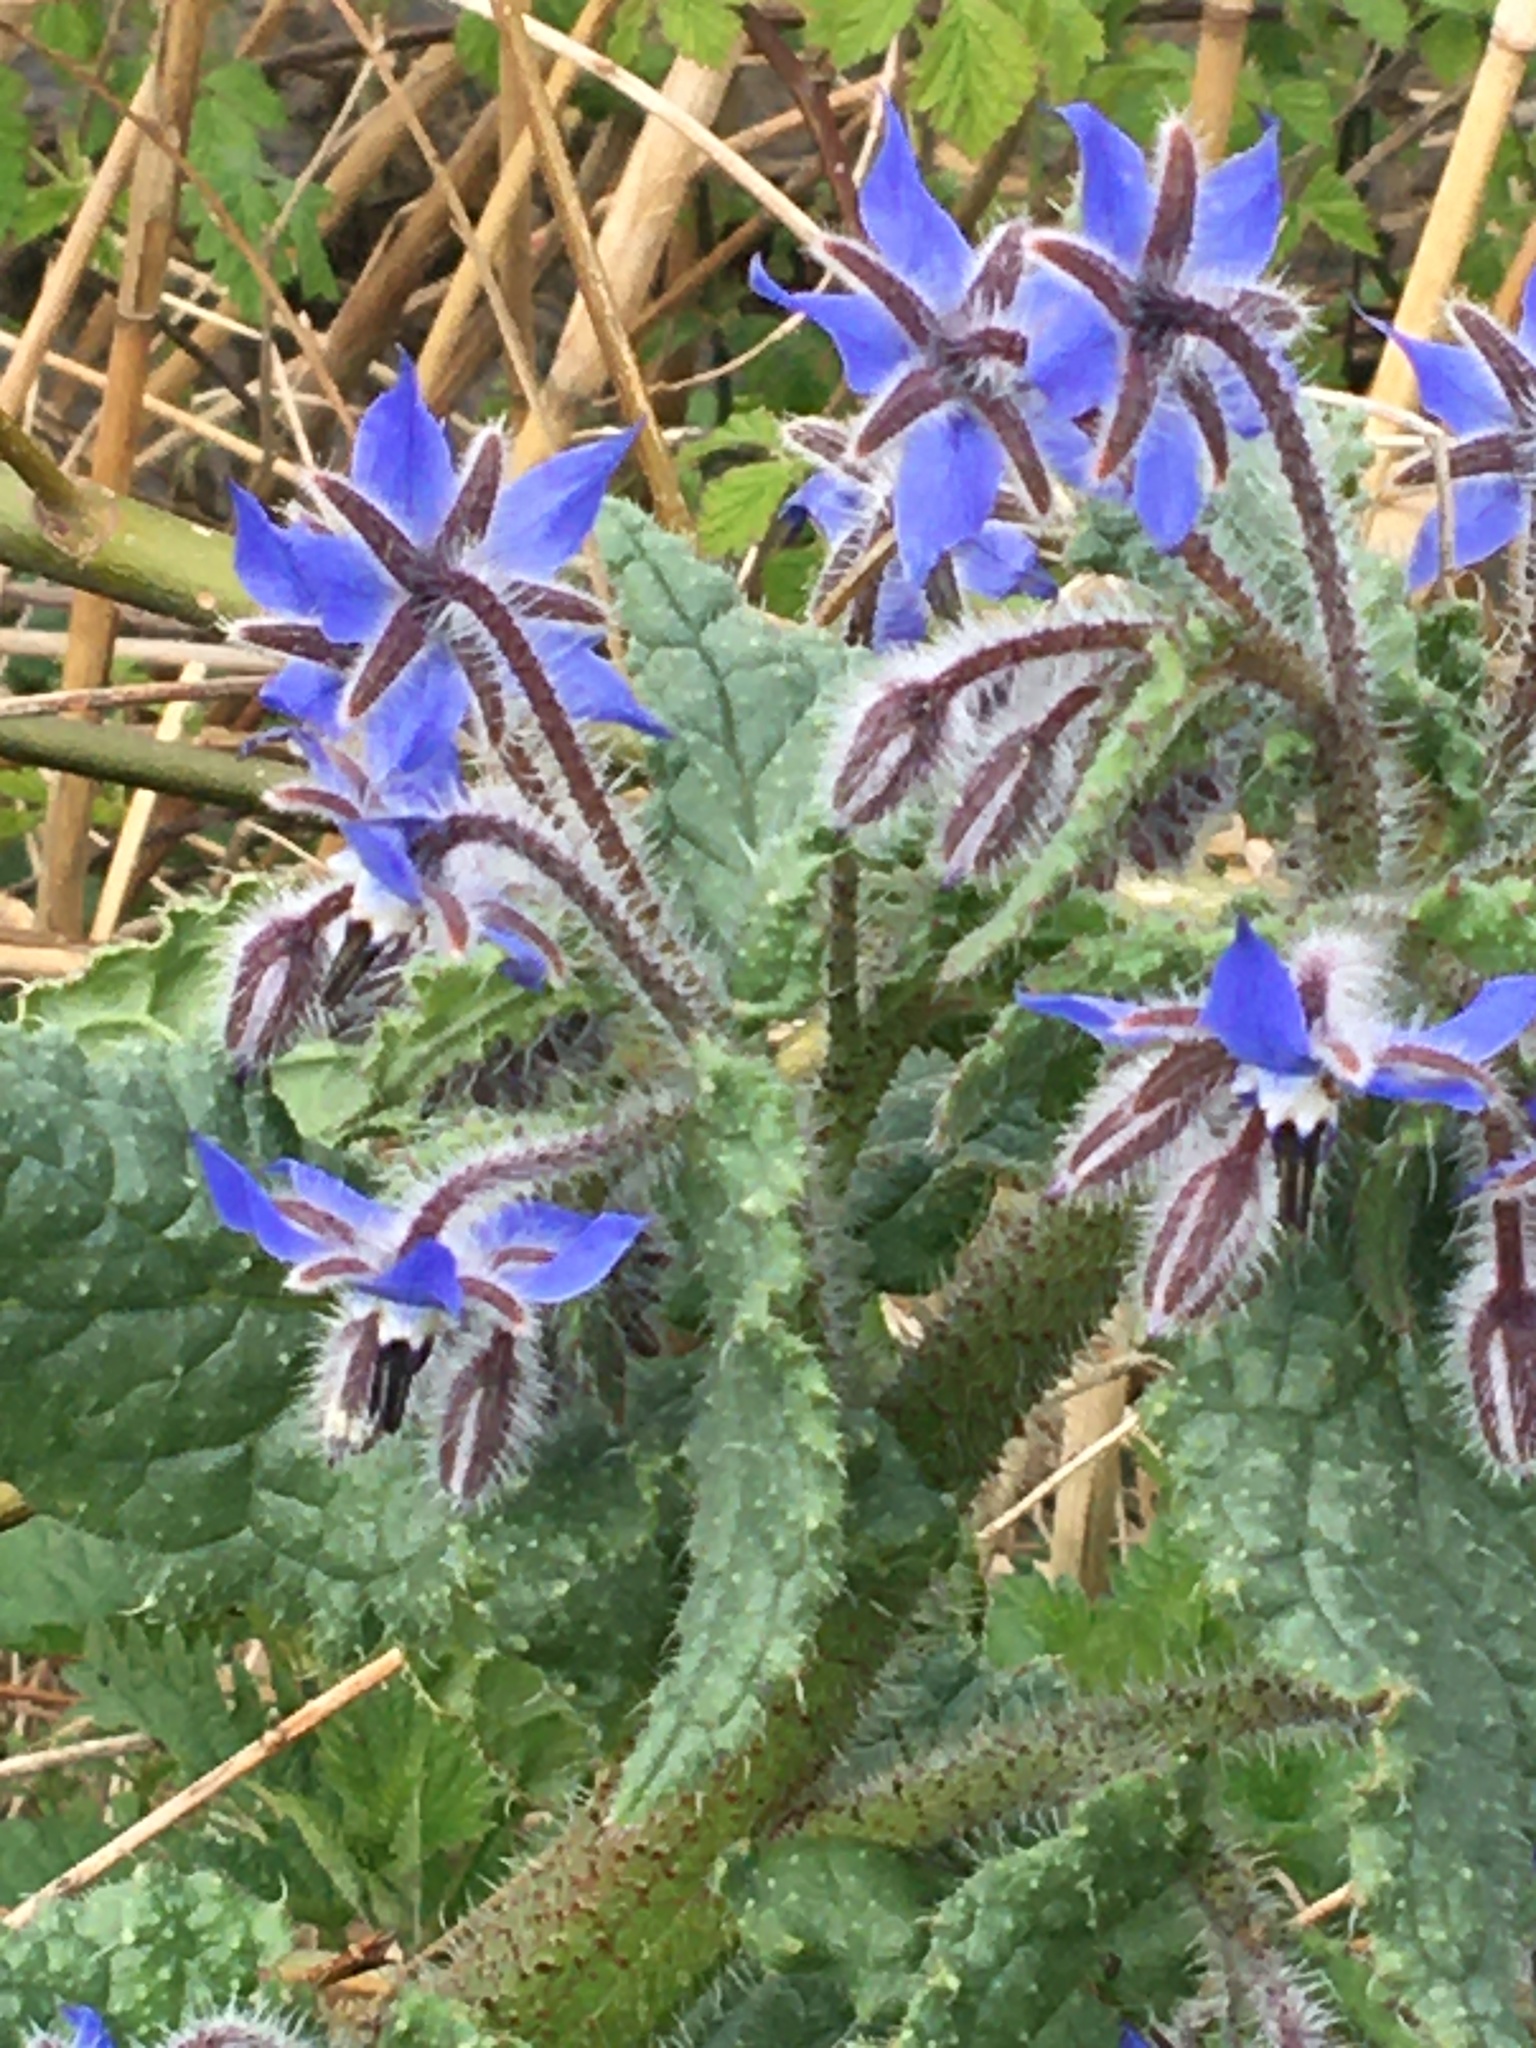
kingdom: Plantae
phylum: Tracheophyta
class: Magnoliopsida
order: Boraginales
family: Boraginaceae
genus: Borago
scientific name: Borago officinalis
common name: Borage
